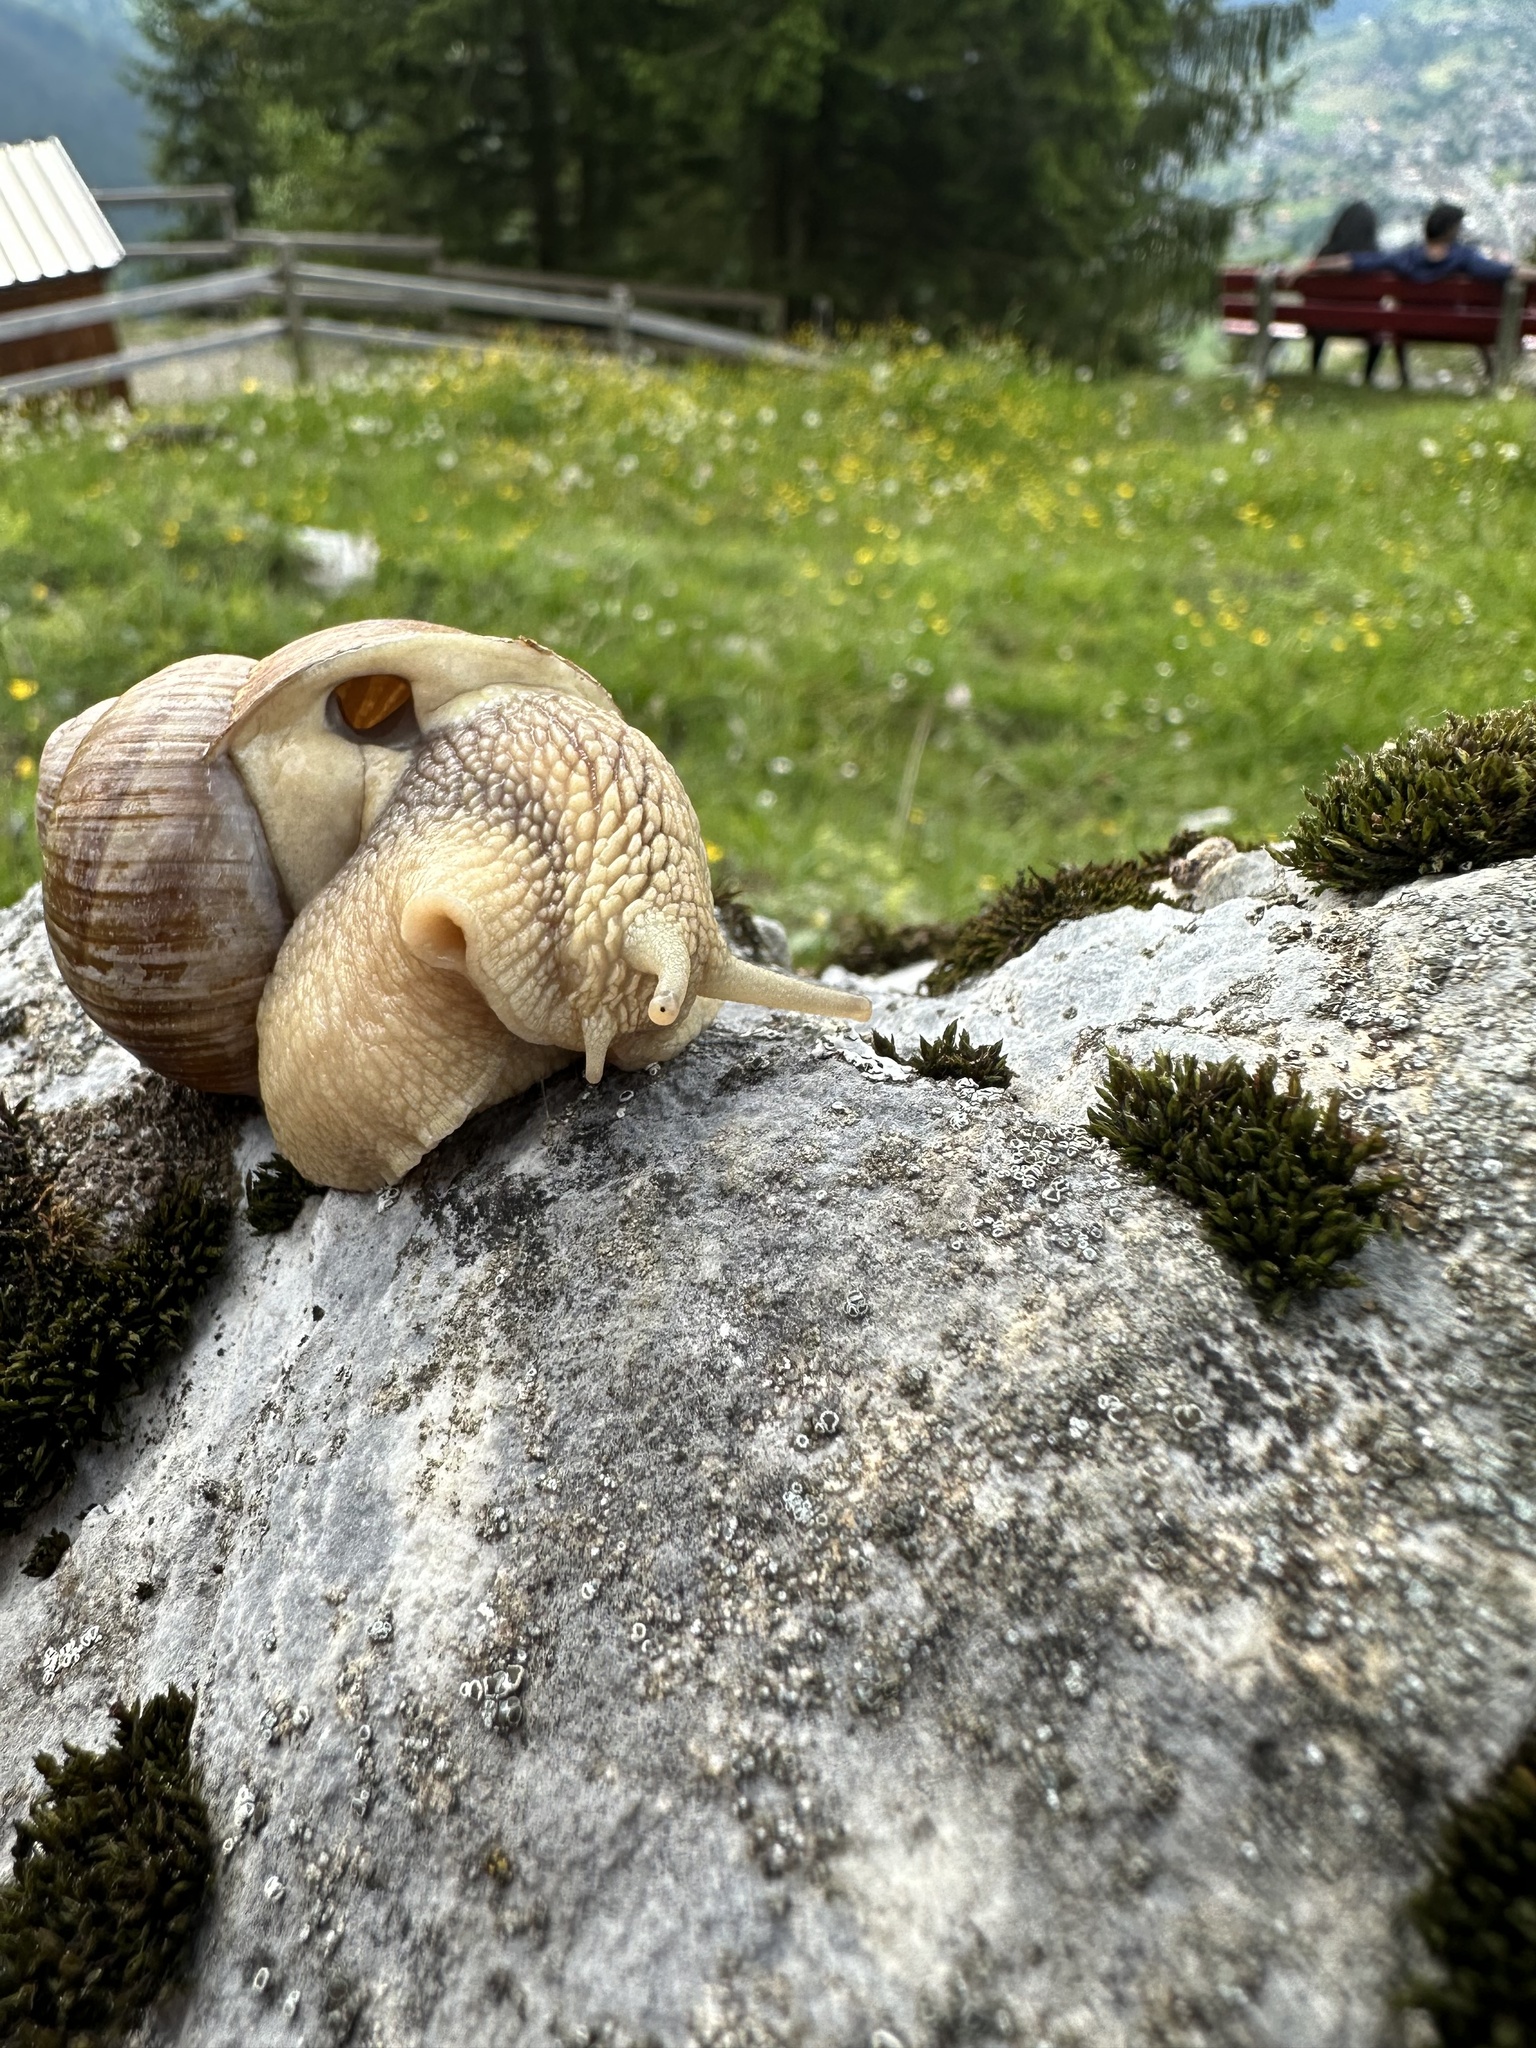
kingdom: Animalia
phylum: Mollusca
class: Gastropoda
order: Stylommatophora
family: Helicidae
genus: Helix
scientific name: Helix pomatia
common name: Roman snail
